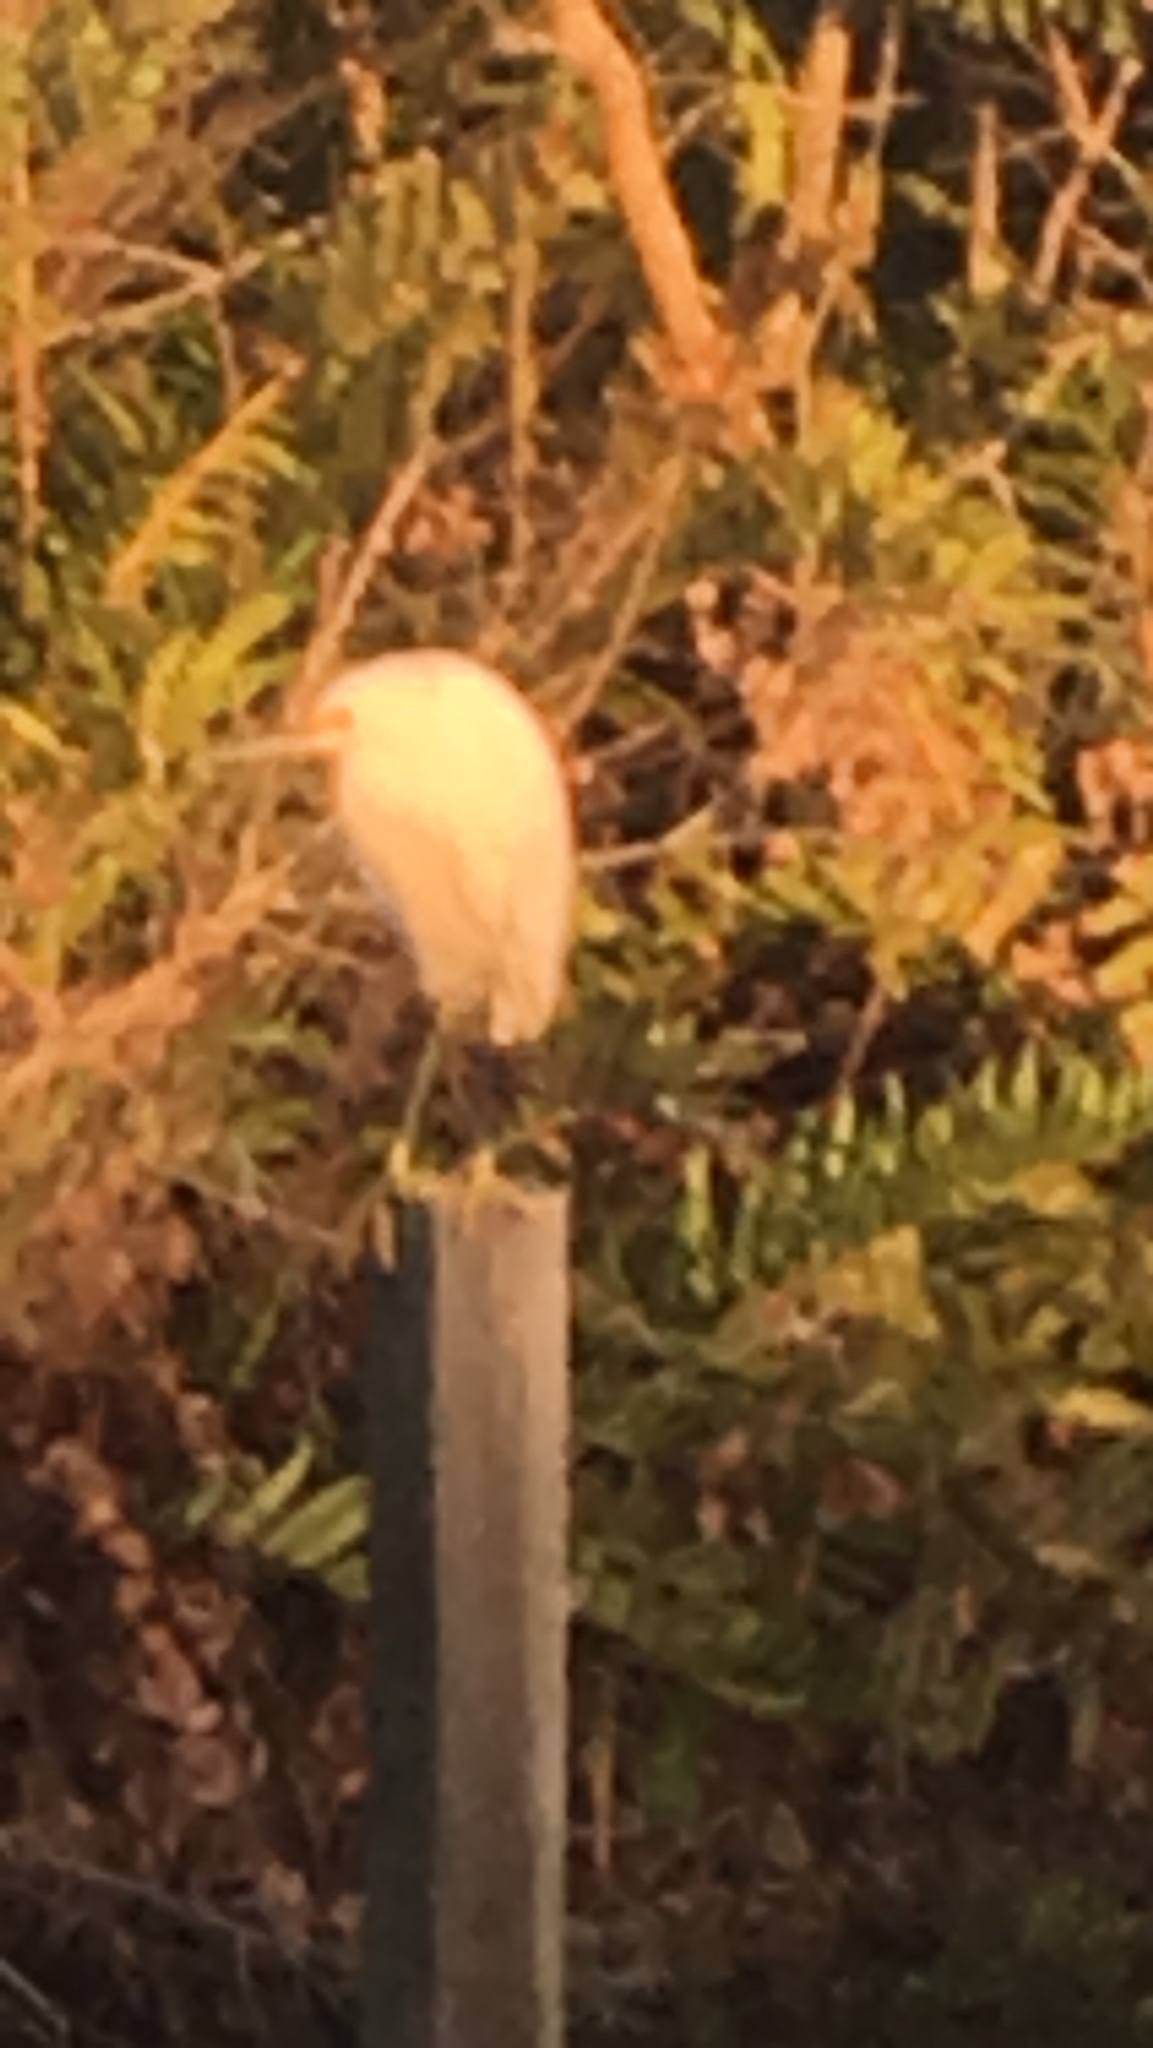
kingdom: Animalia
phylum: Chordata
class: Aves
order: Pelecaniformes
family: Ardeidae
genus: Egretta
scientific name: Egretta thula
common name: Snowy egret
